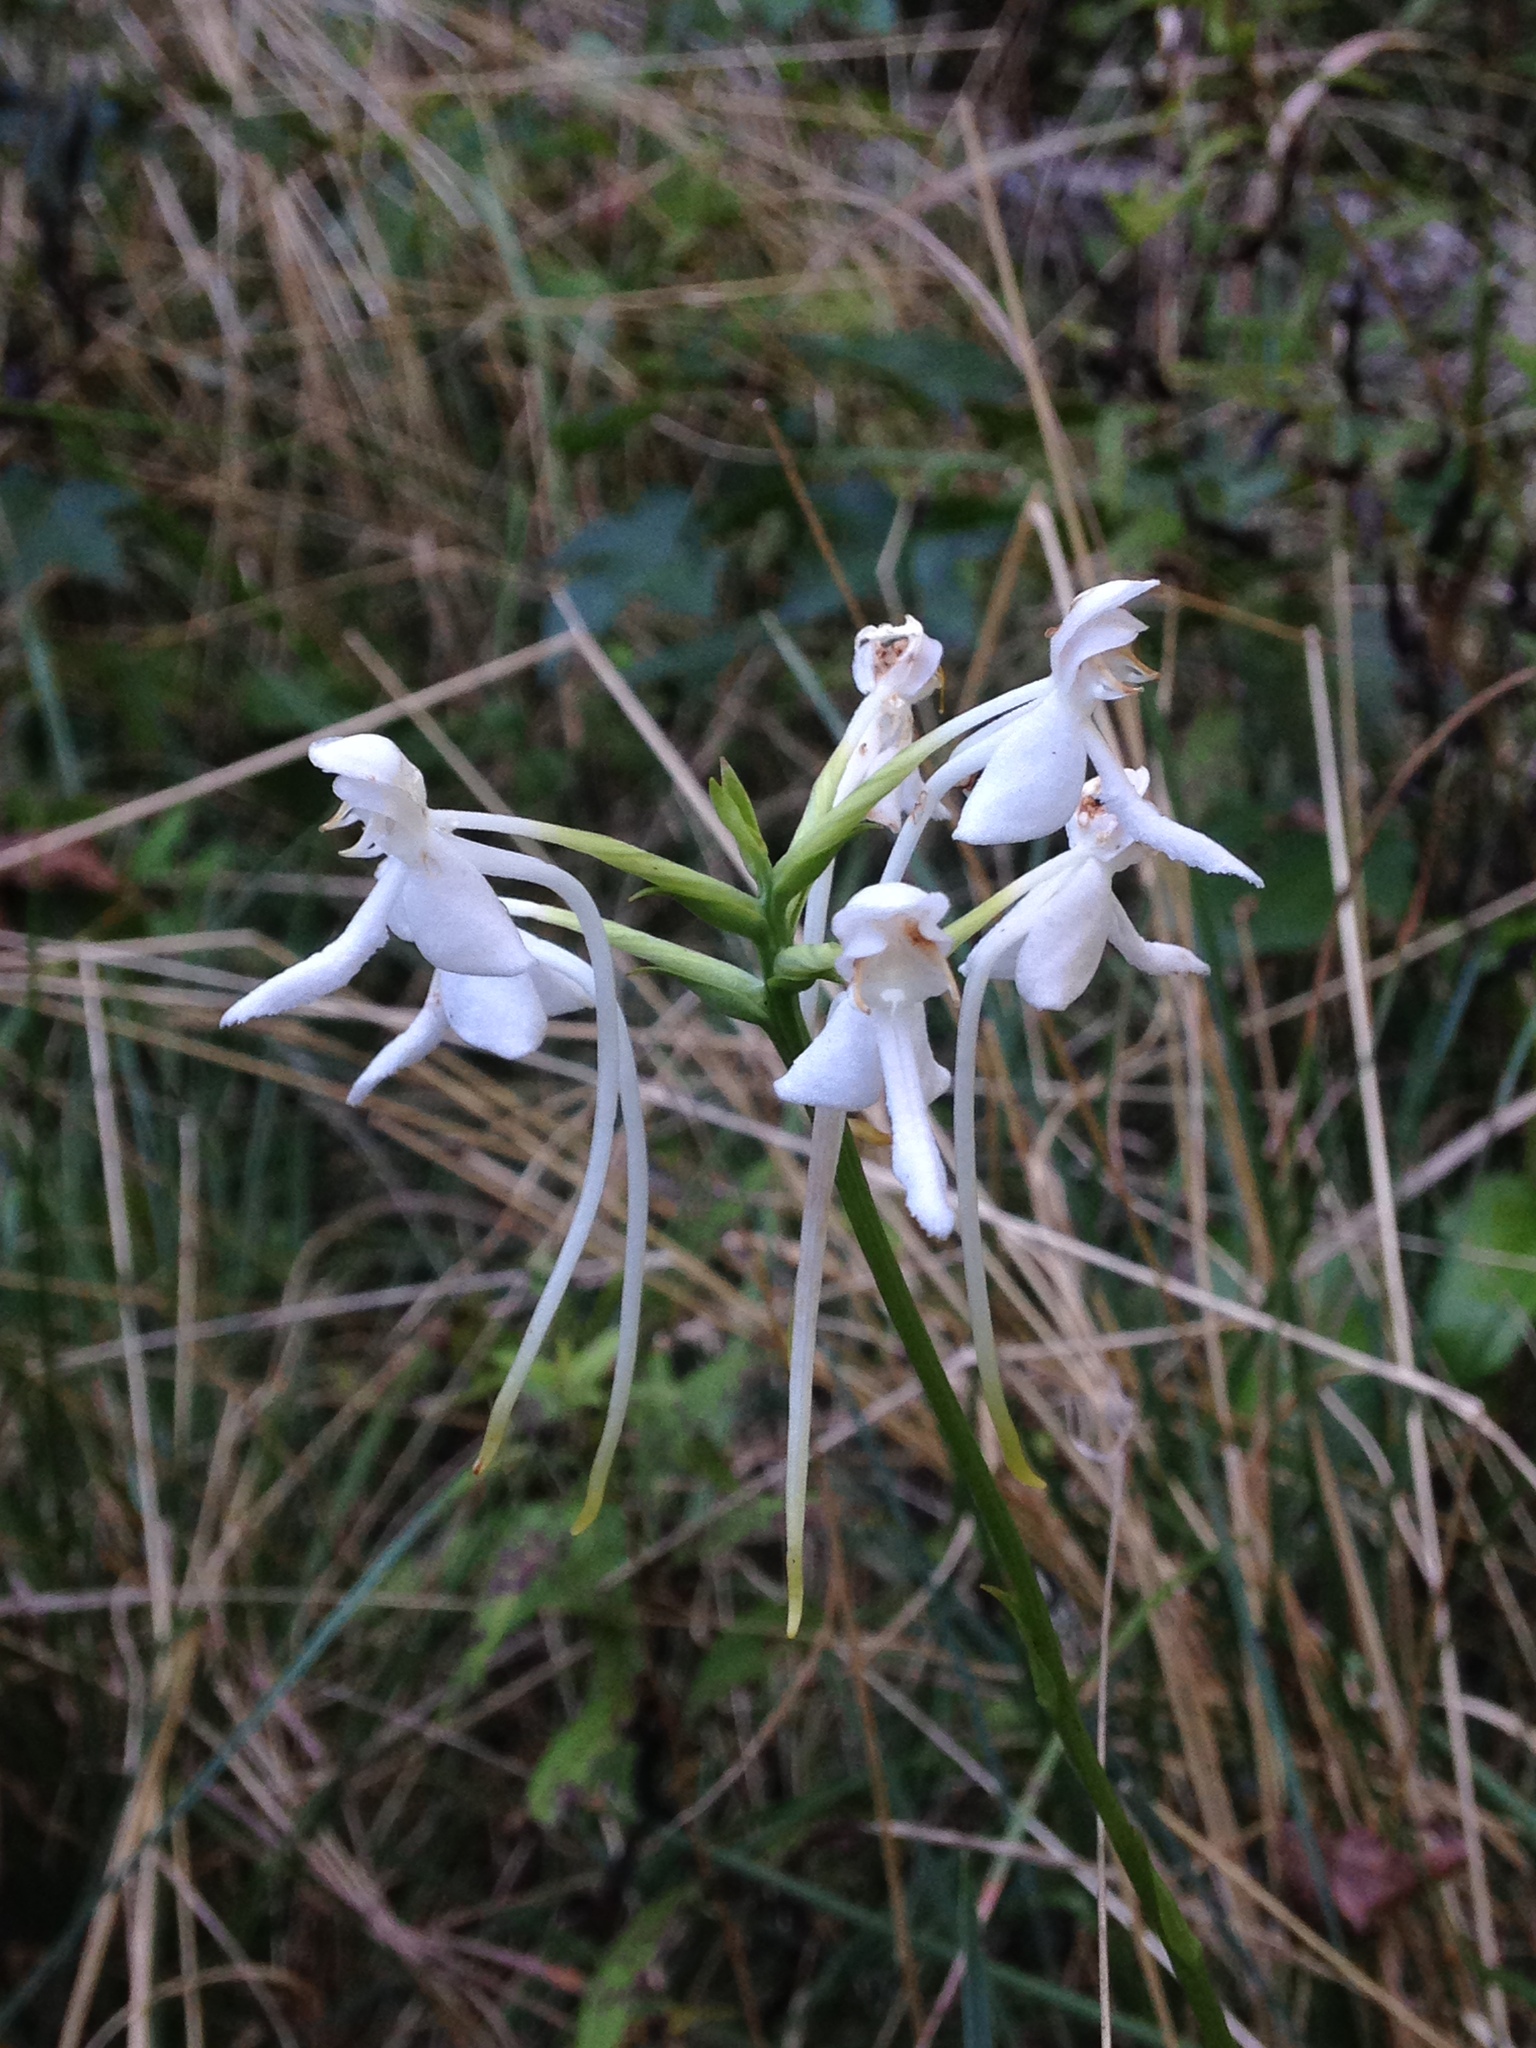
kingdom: Plantae
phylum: Tracheophyta
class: Liliopsida
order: Asparagales
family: Orchidaceae
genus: Platanthera
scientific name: Platanthera integrilabia
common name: White fringeless orchid
